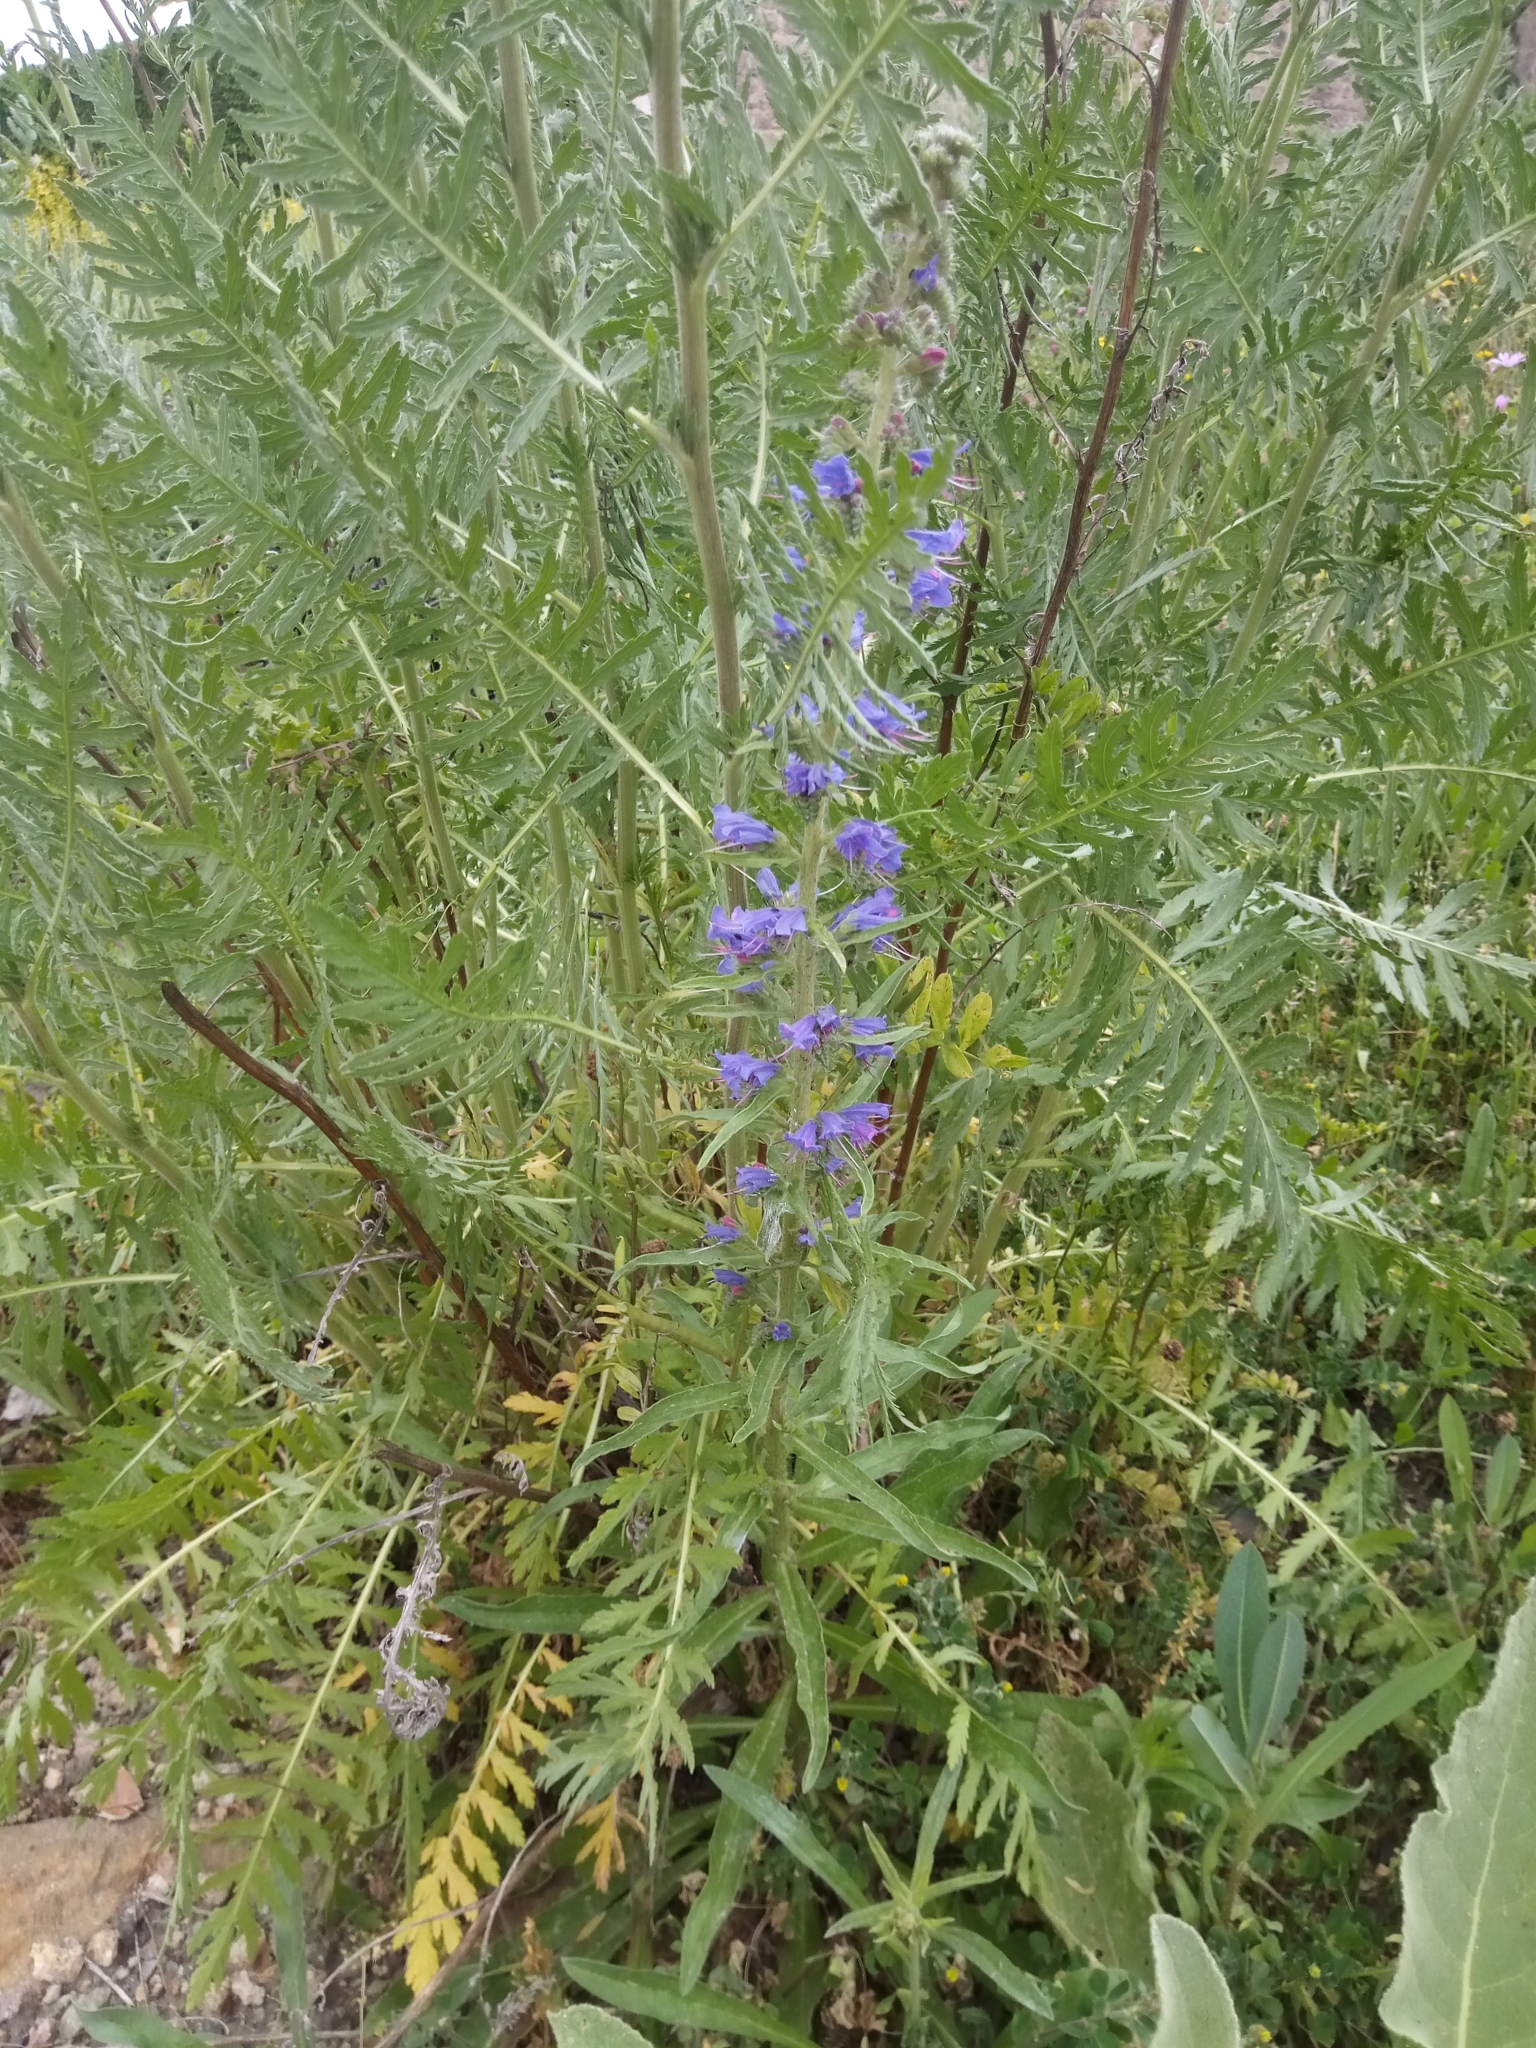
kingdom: Plantae
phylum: Tracheophyta
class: Magnoliopsida
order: Boraginales
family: Boraginaceae
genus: Echium
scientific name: Echium vulgare
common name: Common viper's bugloss
